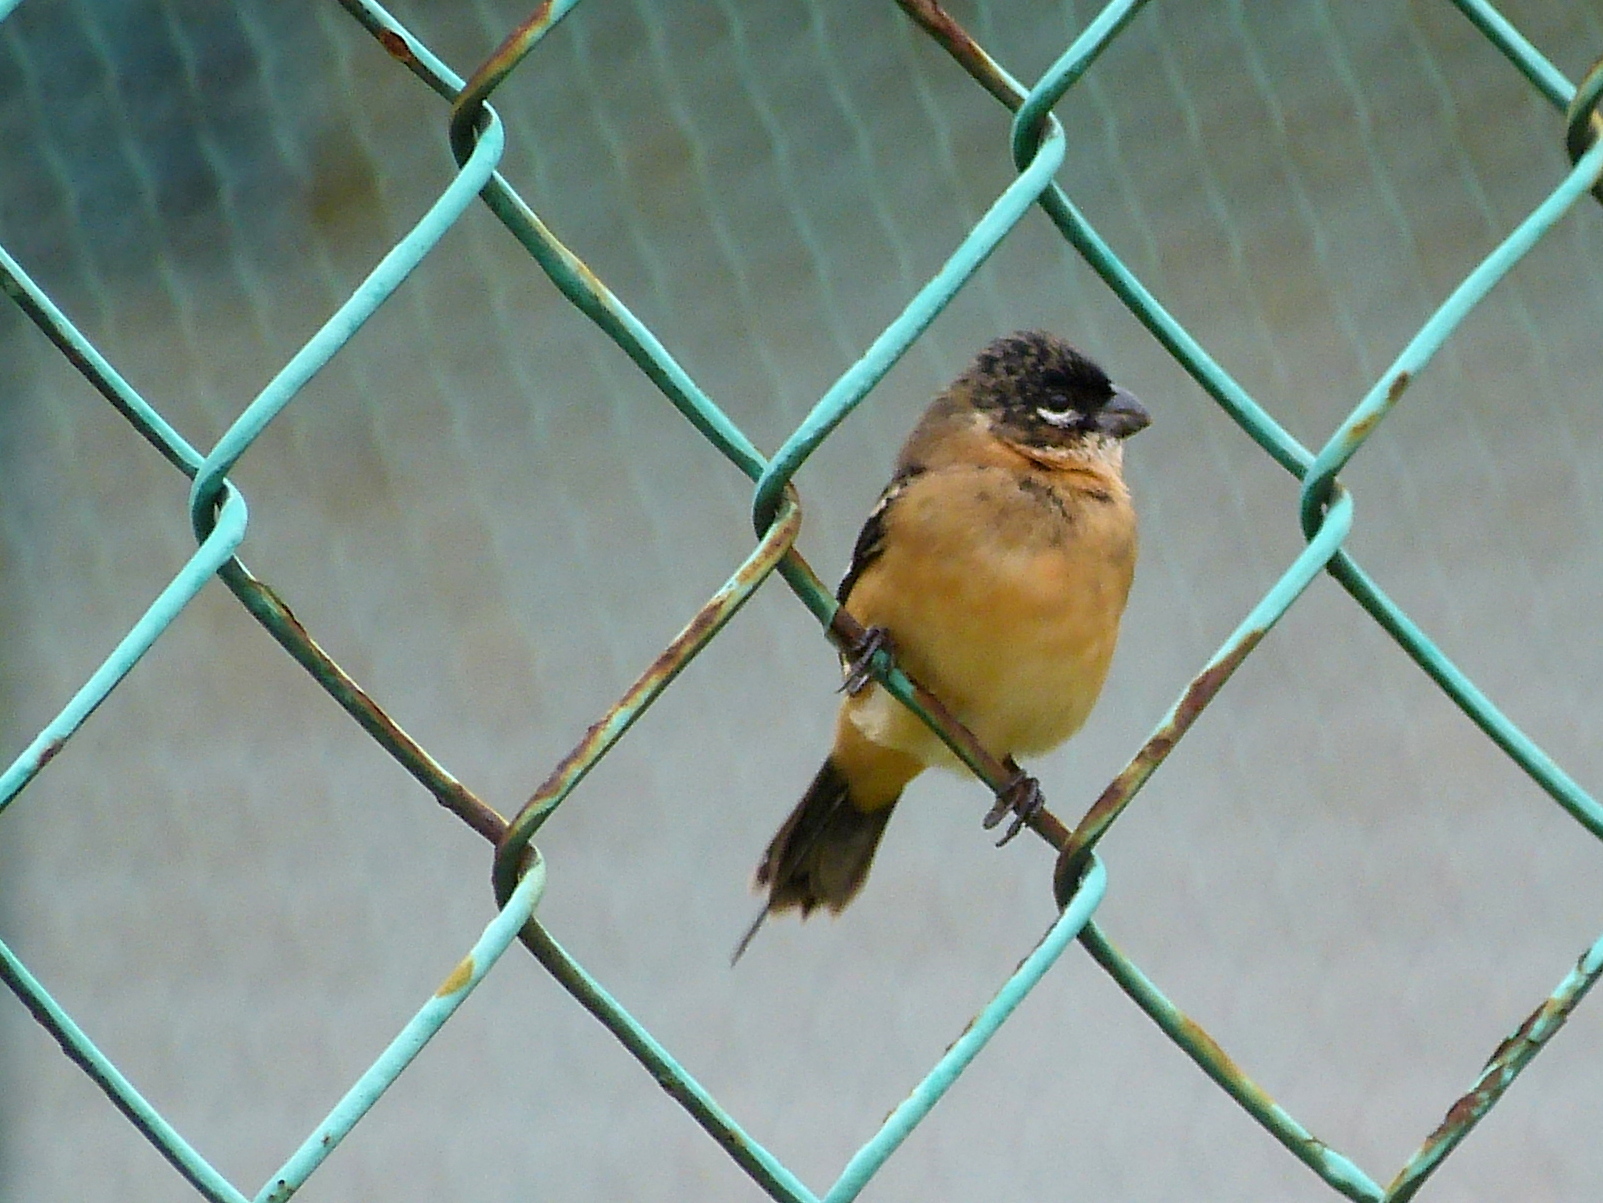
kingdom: Animalia
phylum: Chordata
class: Aves
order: Passeriformes
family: Thraupidae
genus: Sporophila
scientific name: Sporophila morelleti
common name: Morelet's seedeater
